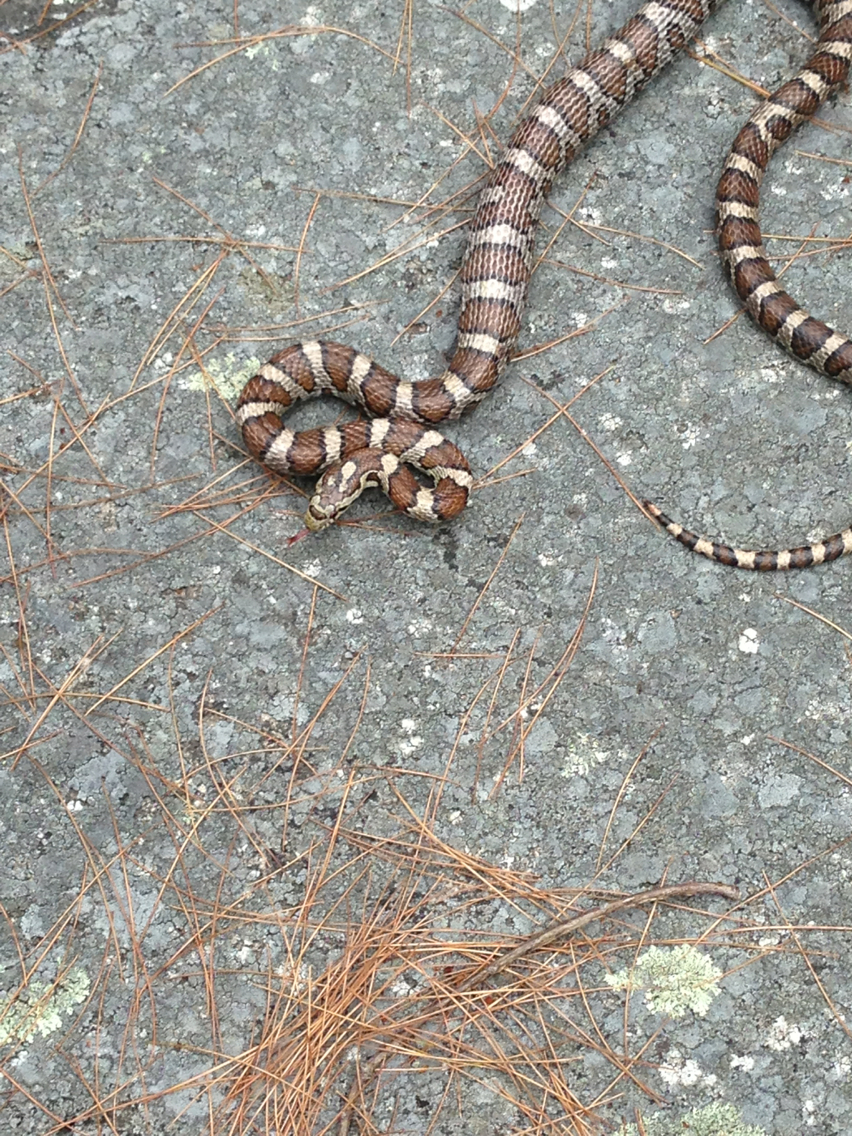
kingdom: Animalia
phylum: Chordata
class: Squamata
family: Colubridae
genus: Lampropeltis
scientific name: Lampropeltis triangulum
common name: Eastern milksnake
